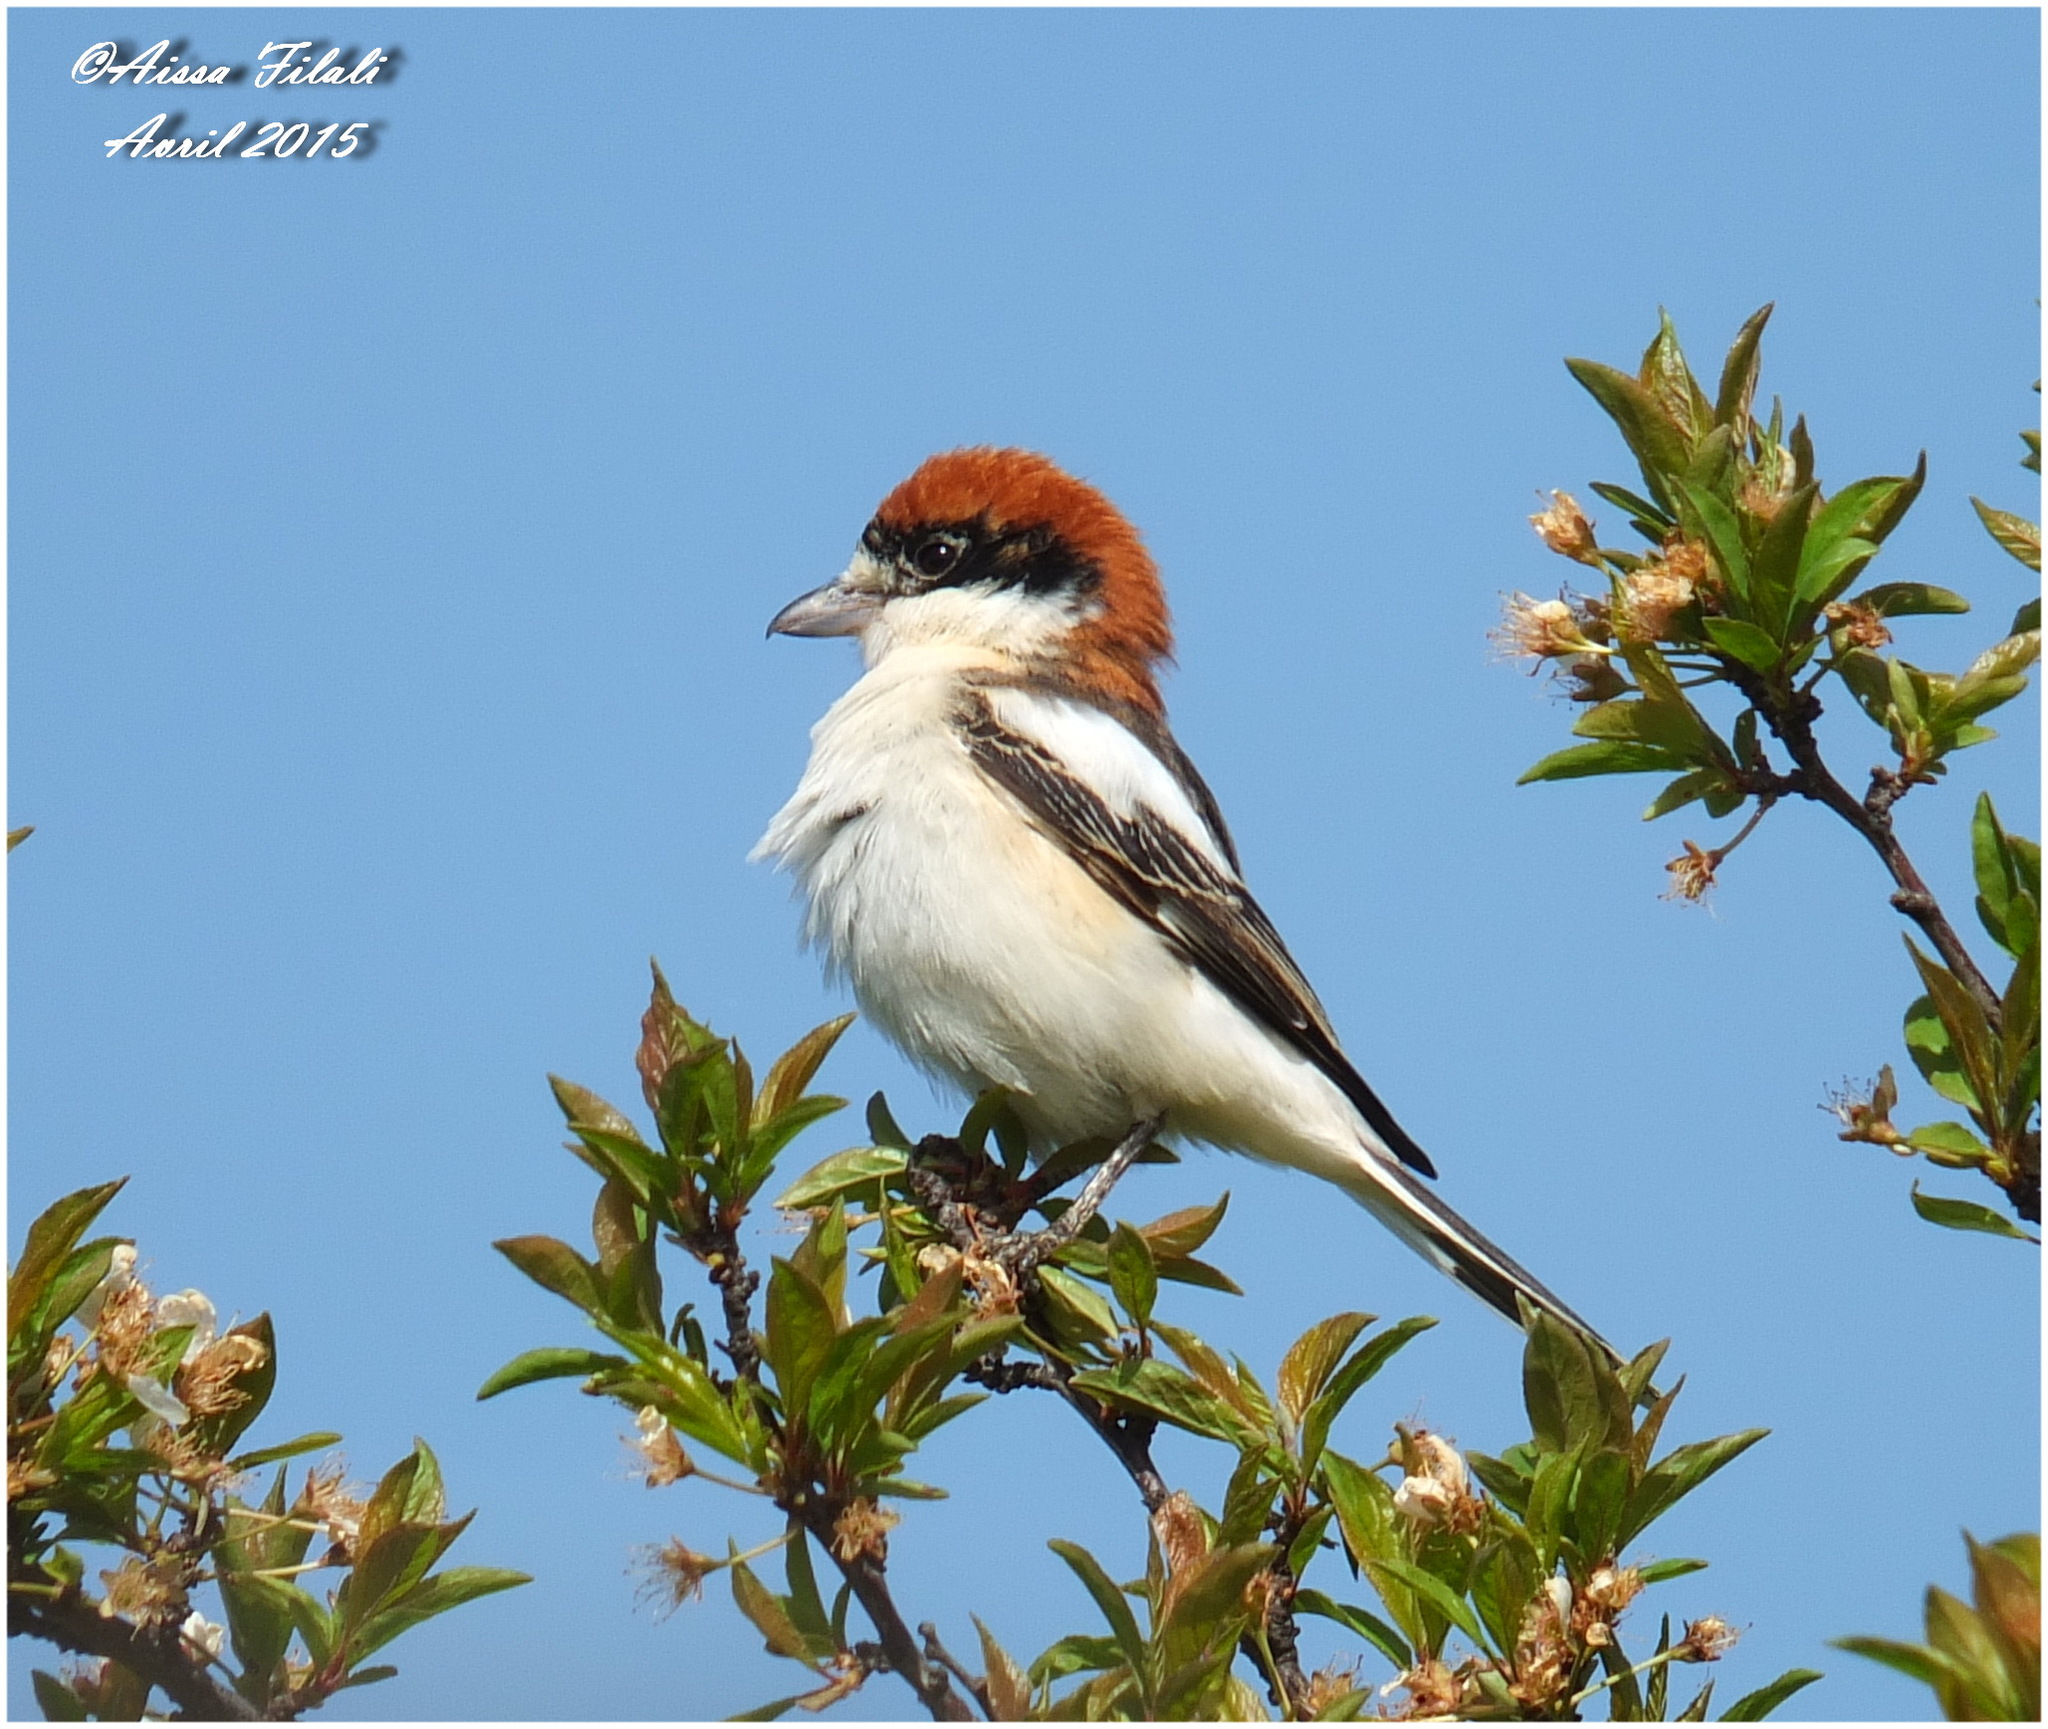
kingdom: Animalia
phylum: Chordata
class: Aves
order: Passeriformes
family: Laniidae
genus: Lanius
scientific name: Lanius senator
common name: Woodchat shrike
